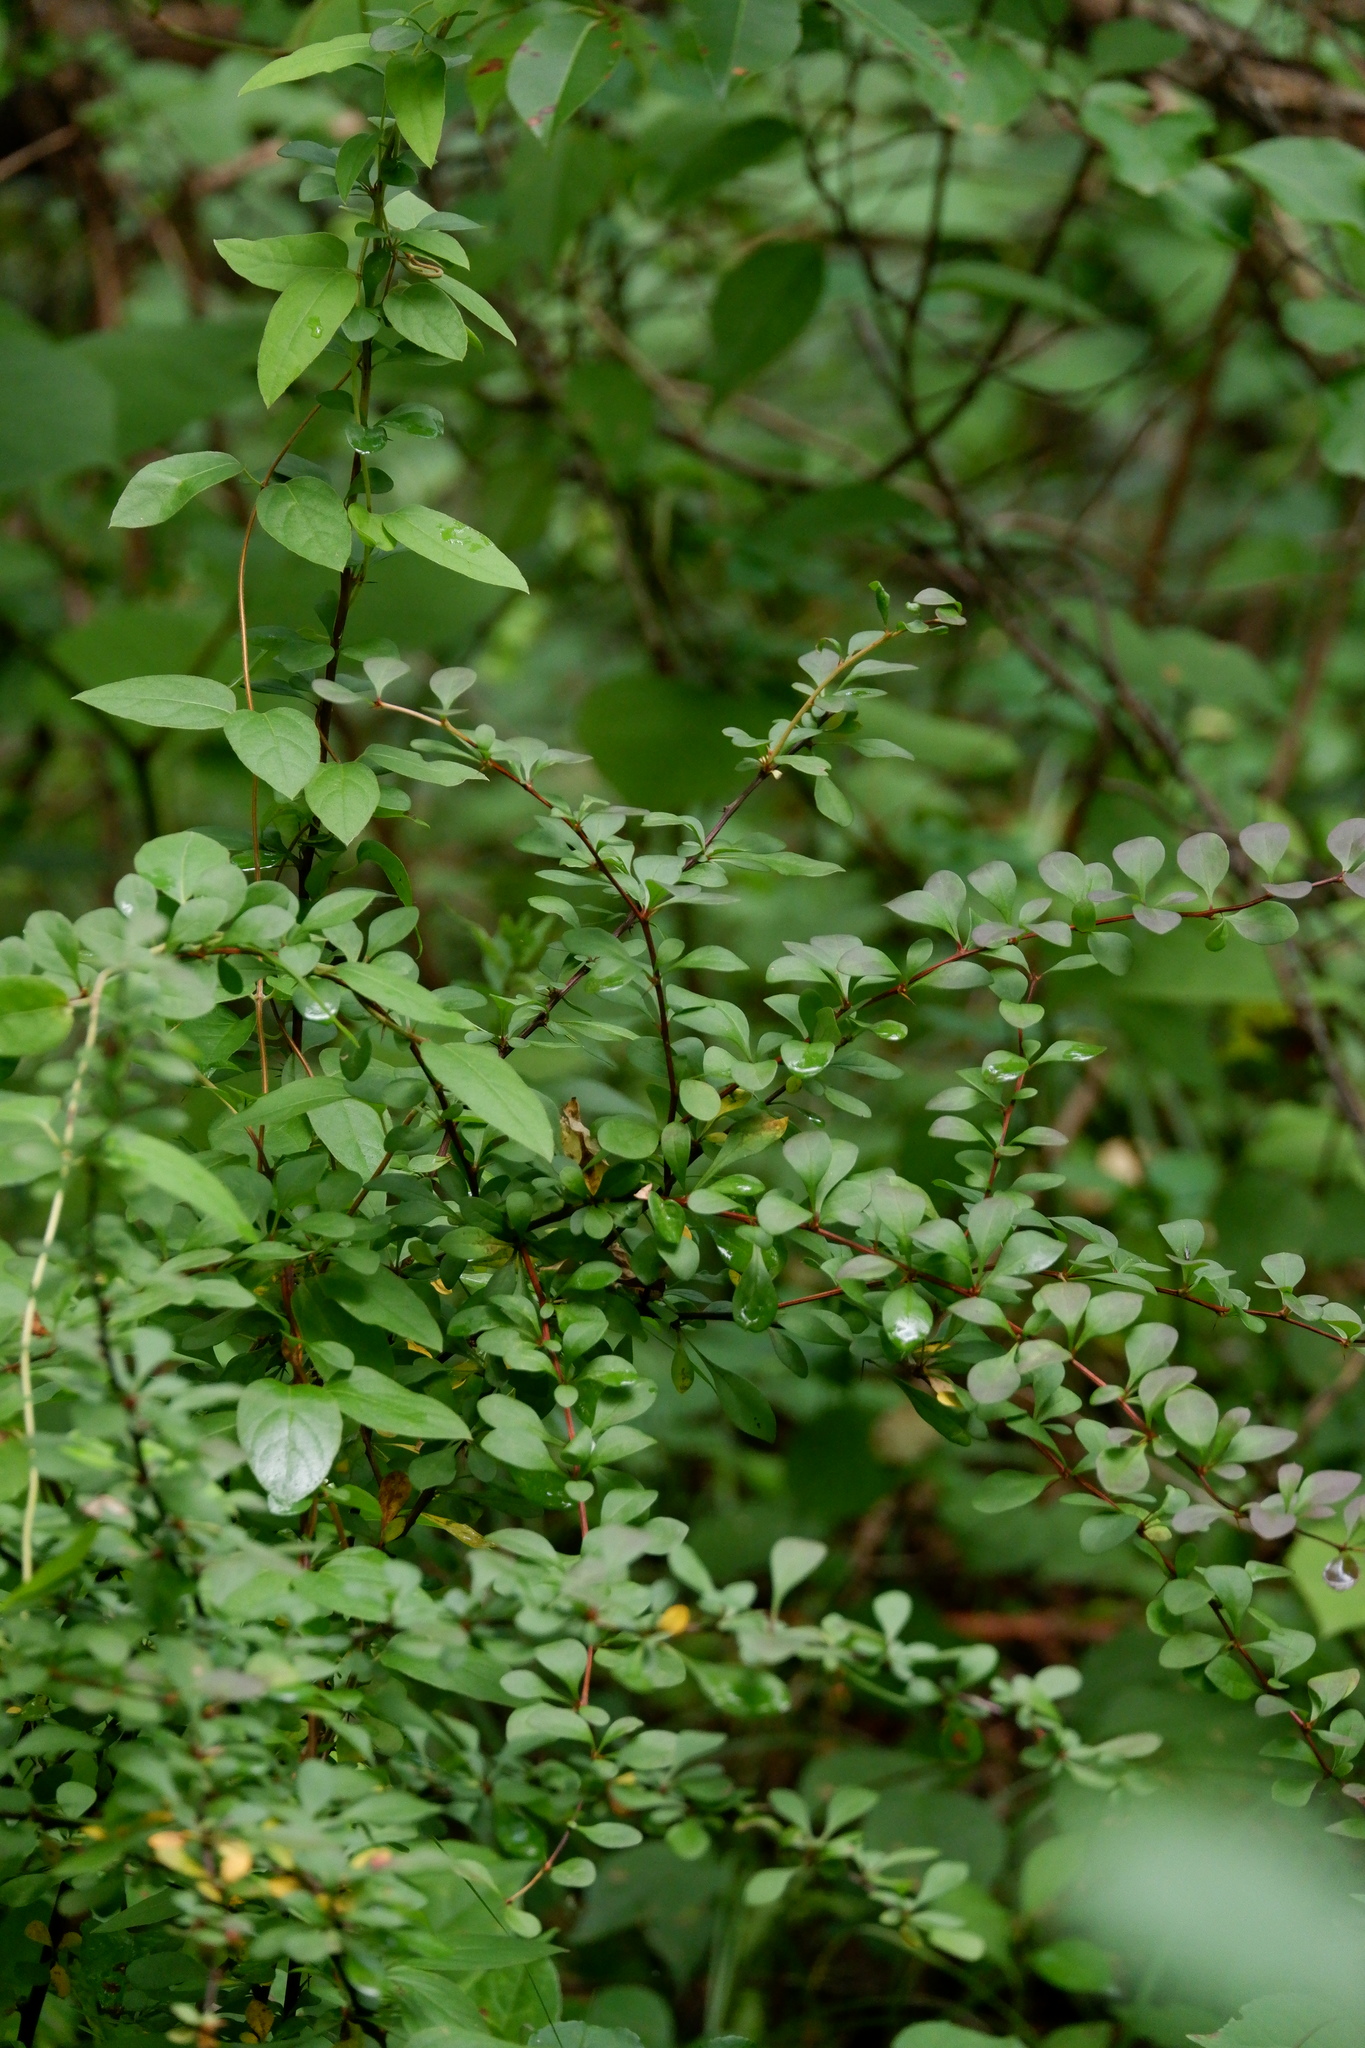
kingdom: Plantae
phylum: Tracheophyta
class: Magnoliopsida
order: Ranunculales
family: Berberidaceae
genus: Berberis
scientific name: Berberis thunbergii
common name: Japanese barberry
